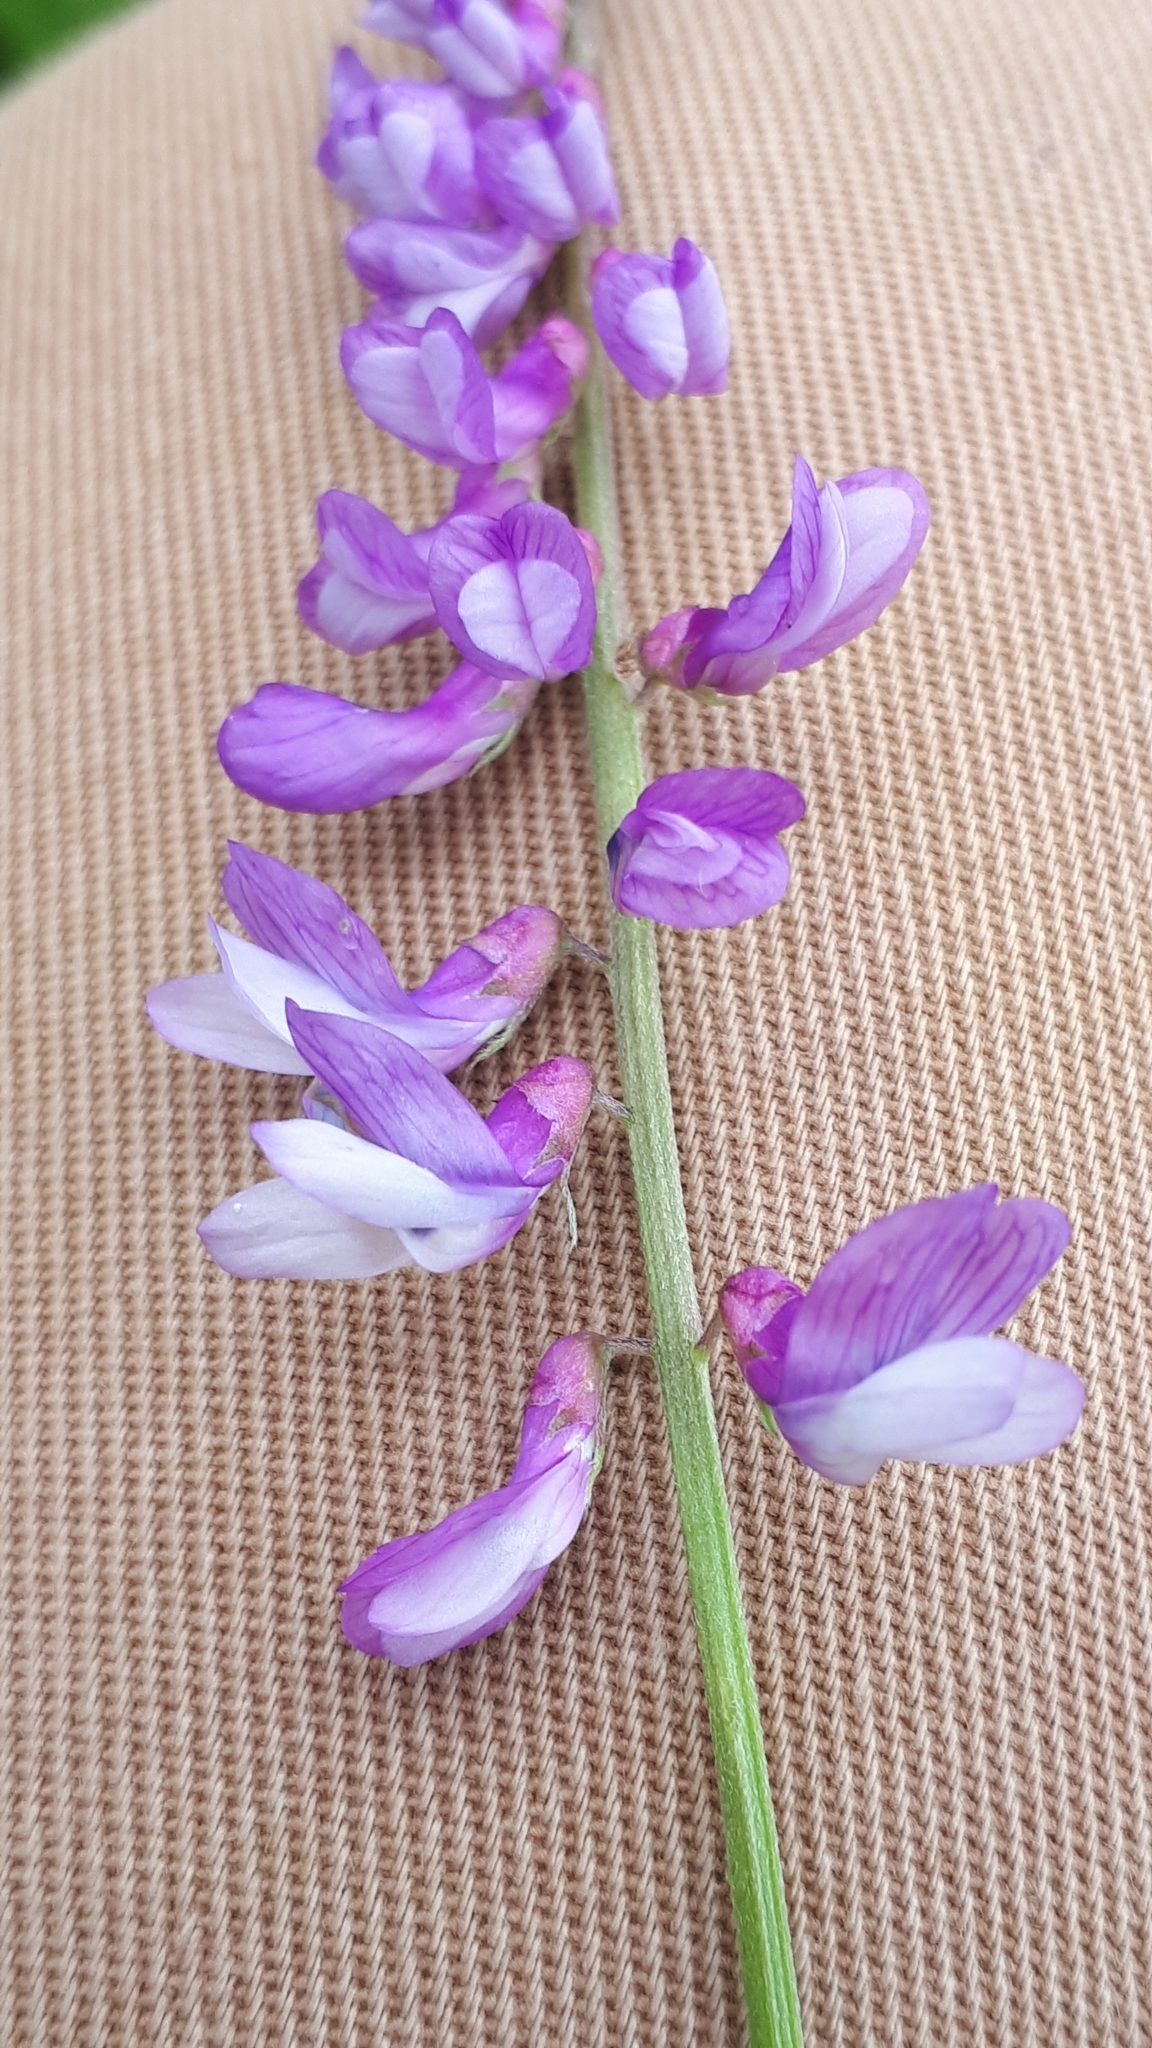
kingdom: Plantae
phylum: Tracheophyta
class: Magnoliopsida
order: Fabales
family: Fabaceae
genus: Vicia
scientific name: Vicia cracca
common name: Bird vetch
